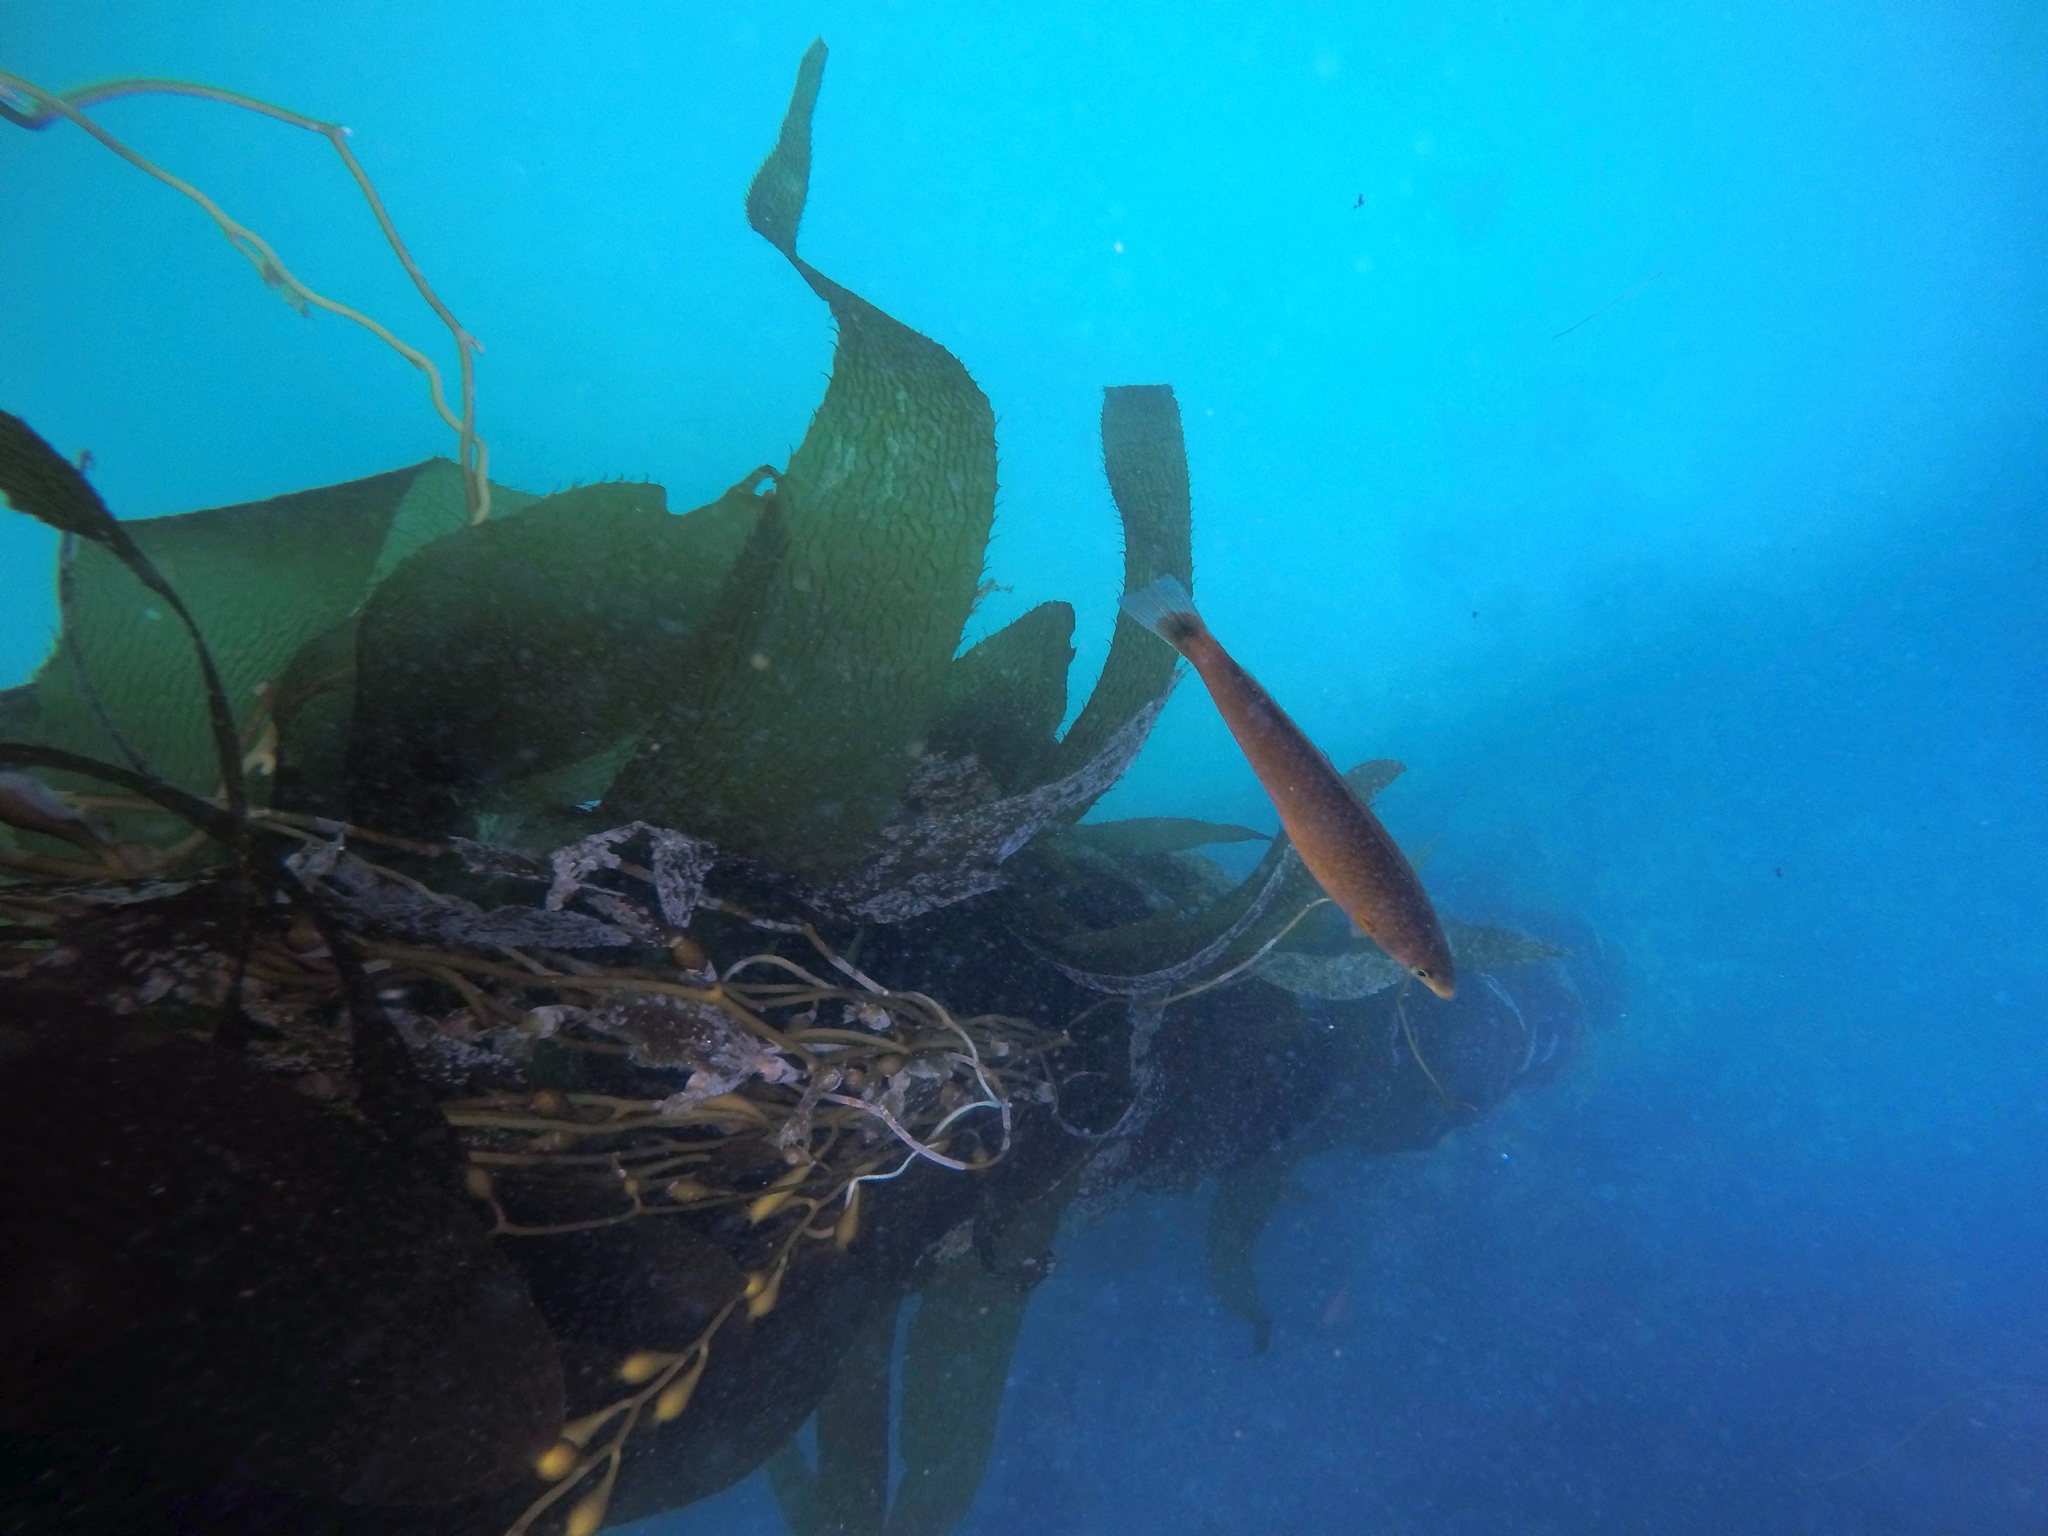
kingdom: Animalia
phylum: Chordata
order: Perciformes
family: Labridae
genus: Oxyjulis
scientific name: Oxyjulis californica
